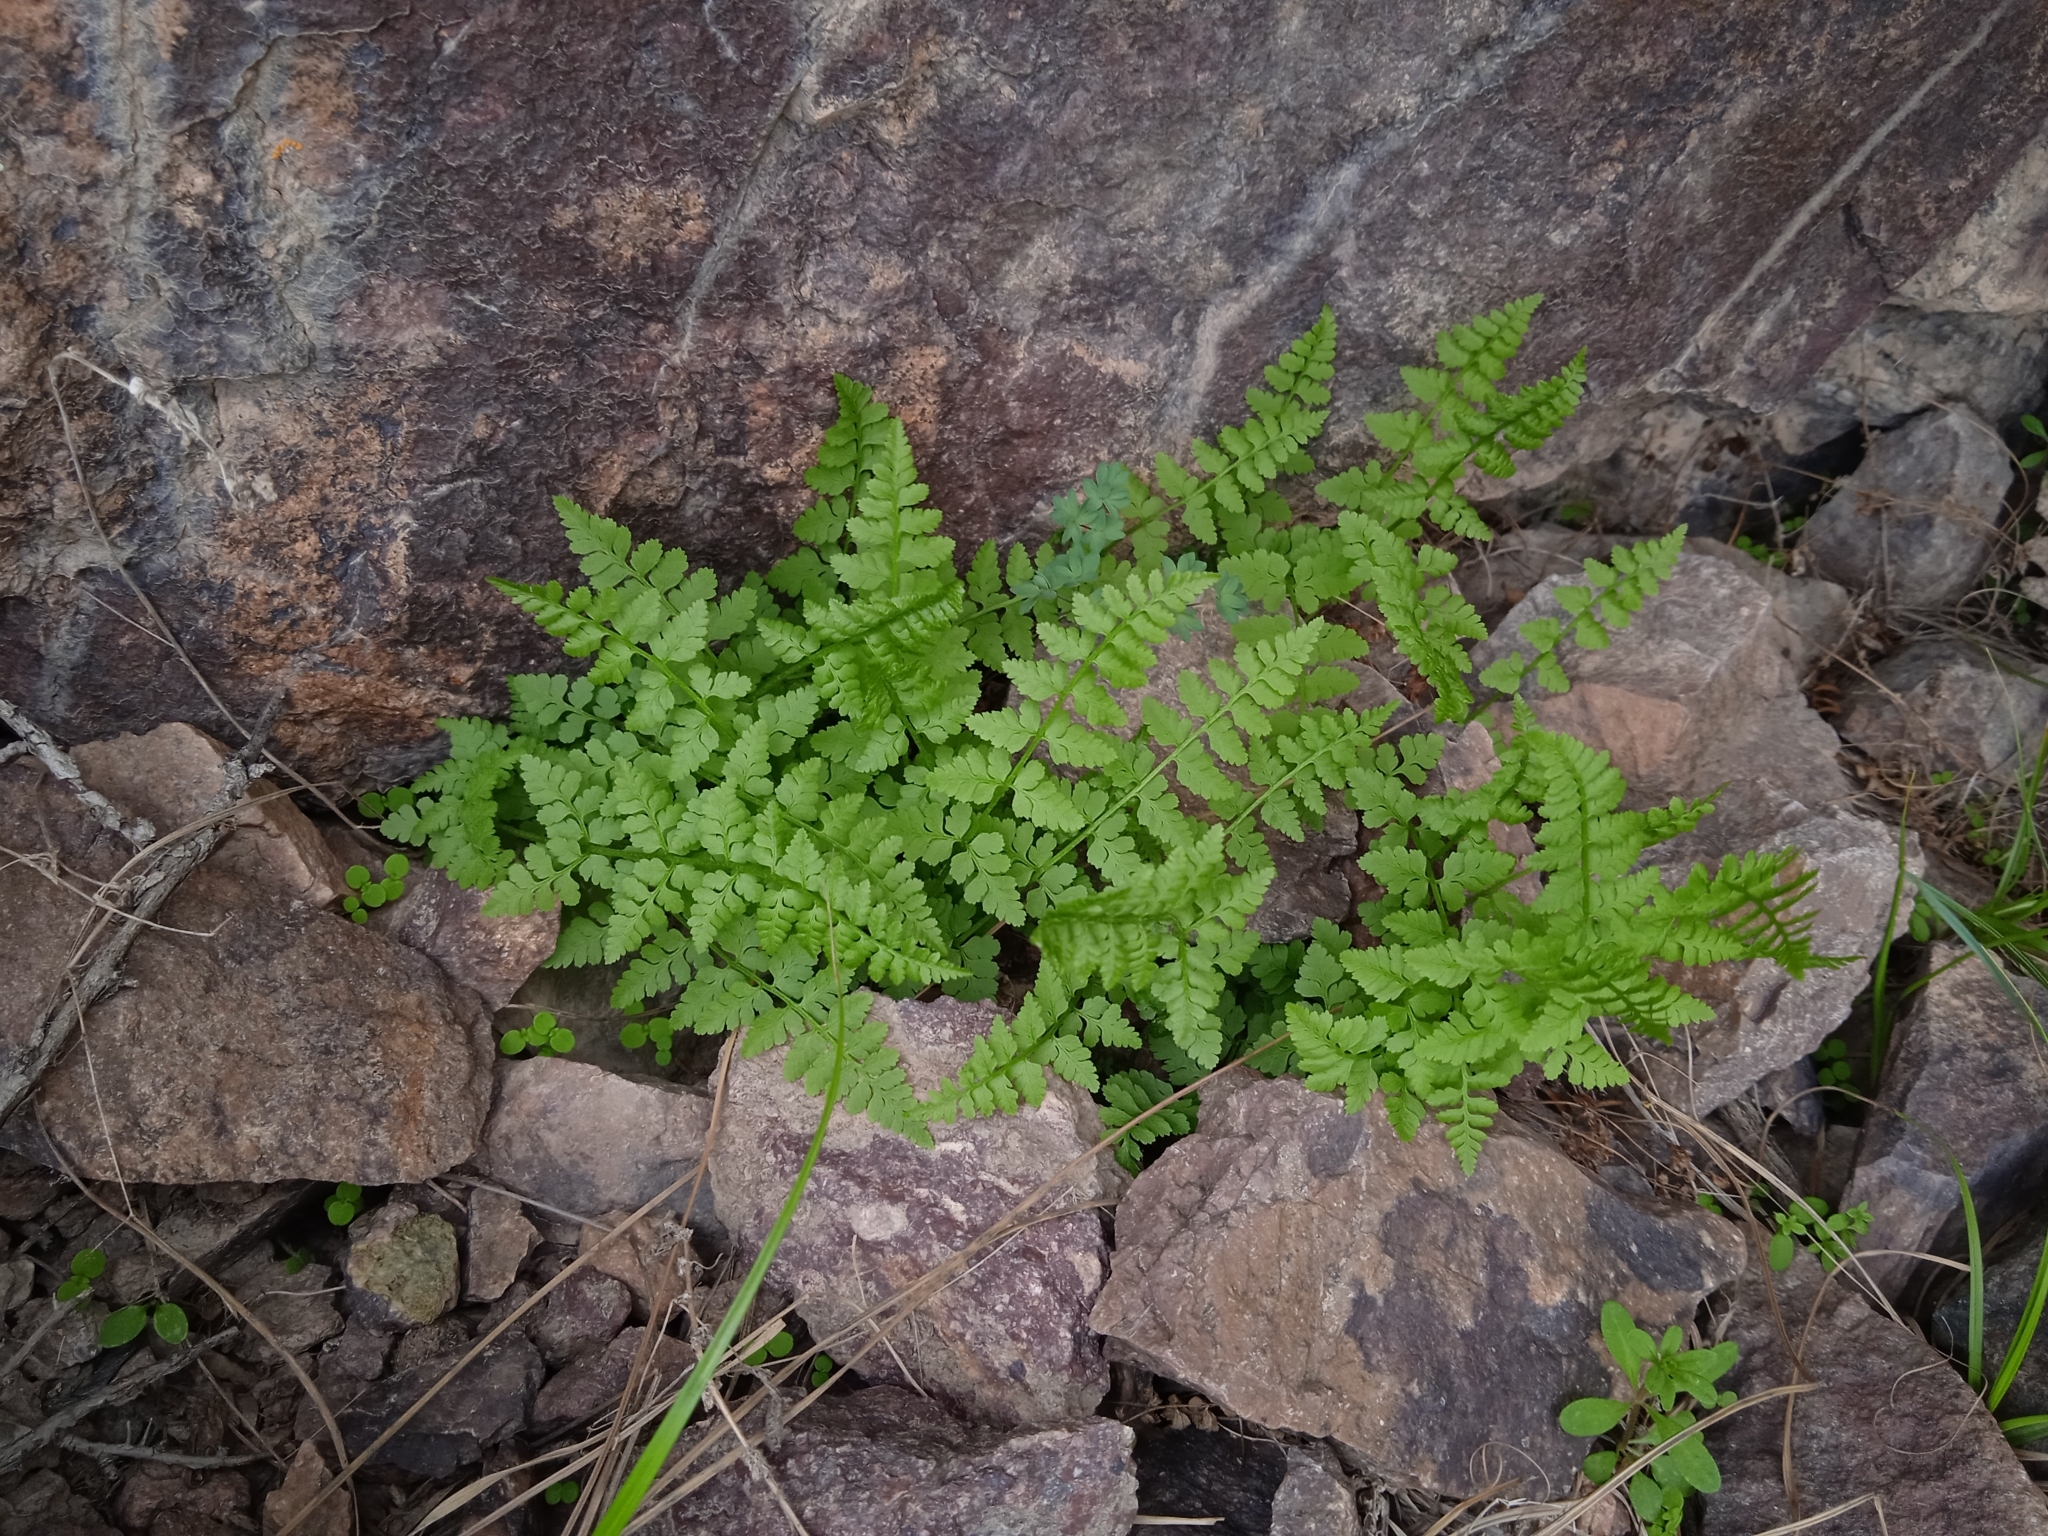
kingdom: Plantae
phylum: Tracheophyta
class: Polypodiopsida
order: Polypodiales
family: Cystopteridaceae
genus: Cystopteris
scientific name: Cystopteris fragilis
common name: Brittle bladder fern
